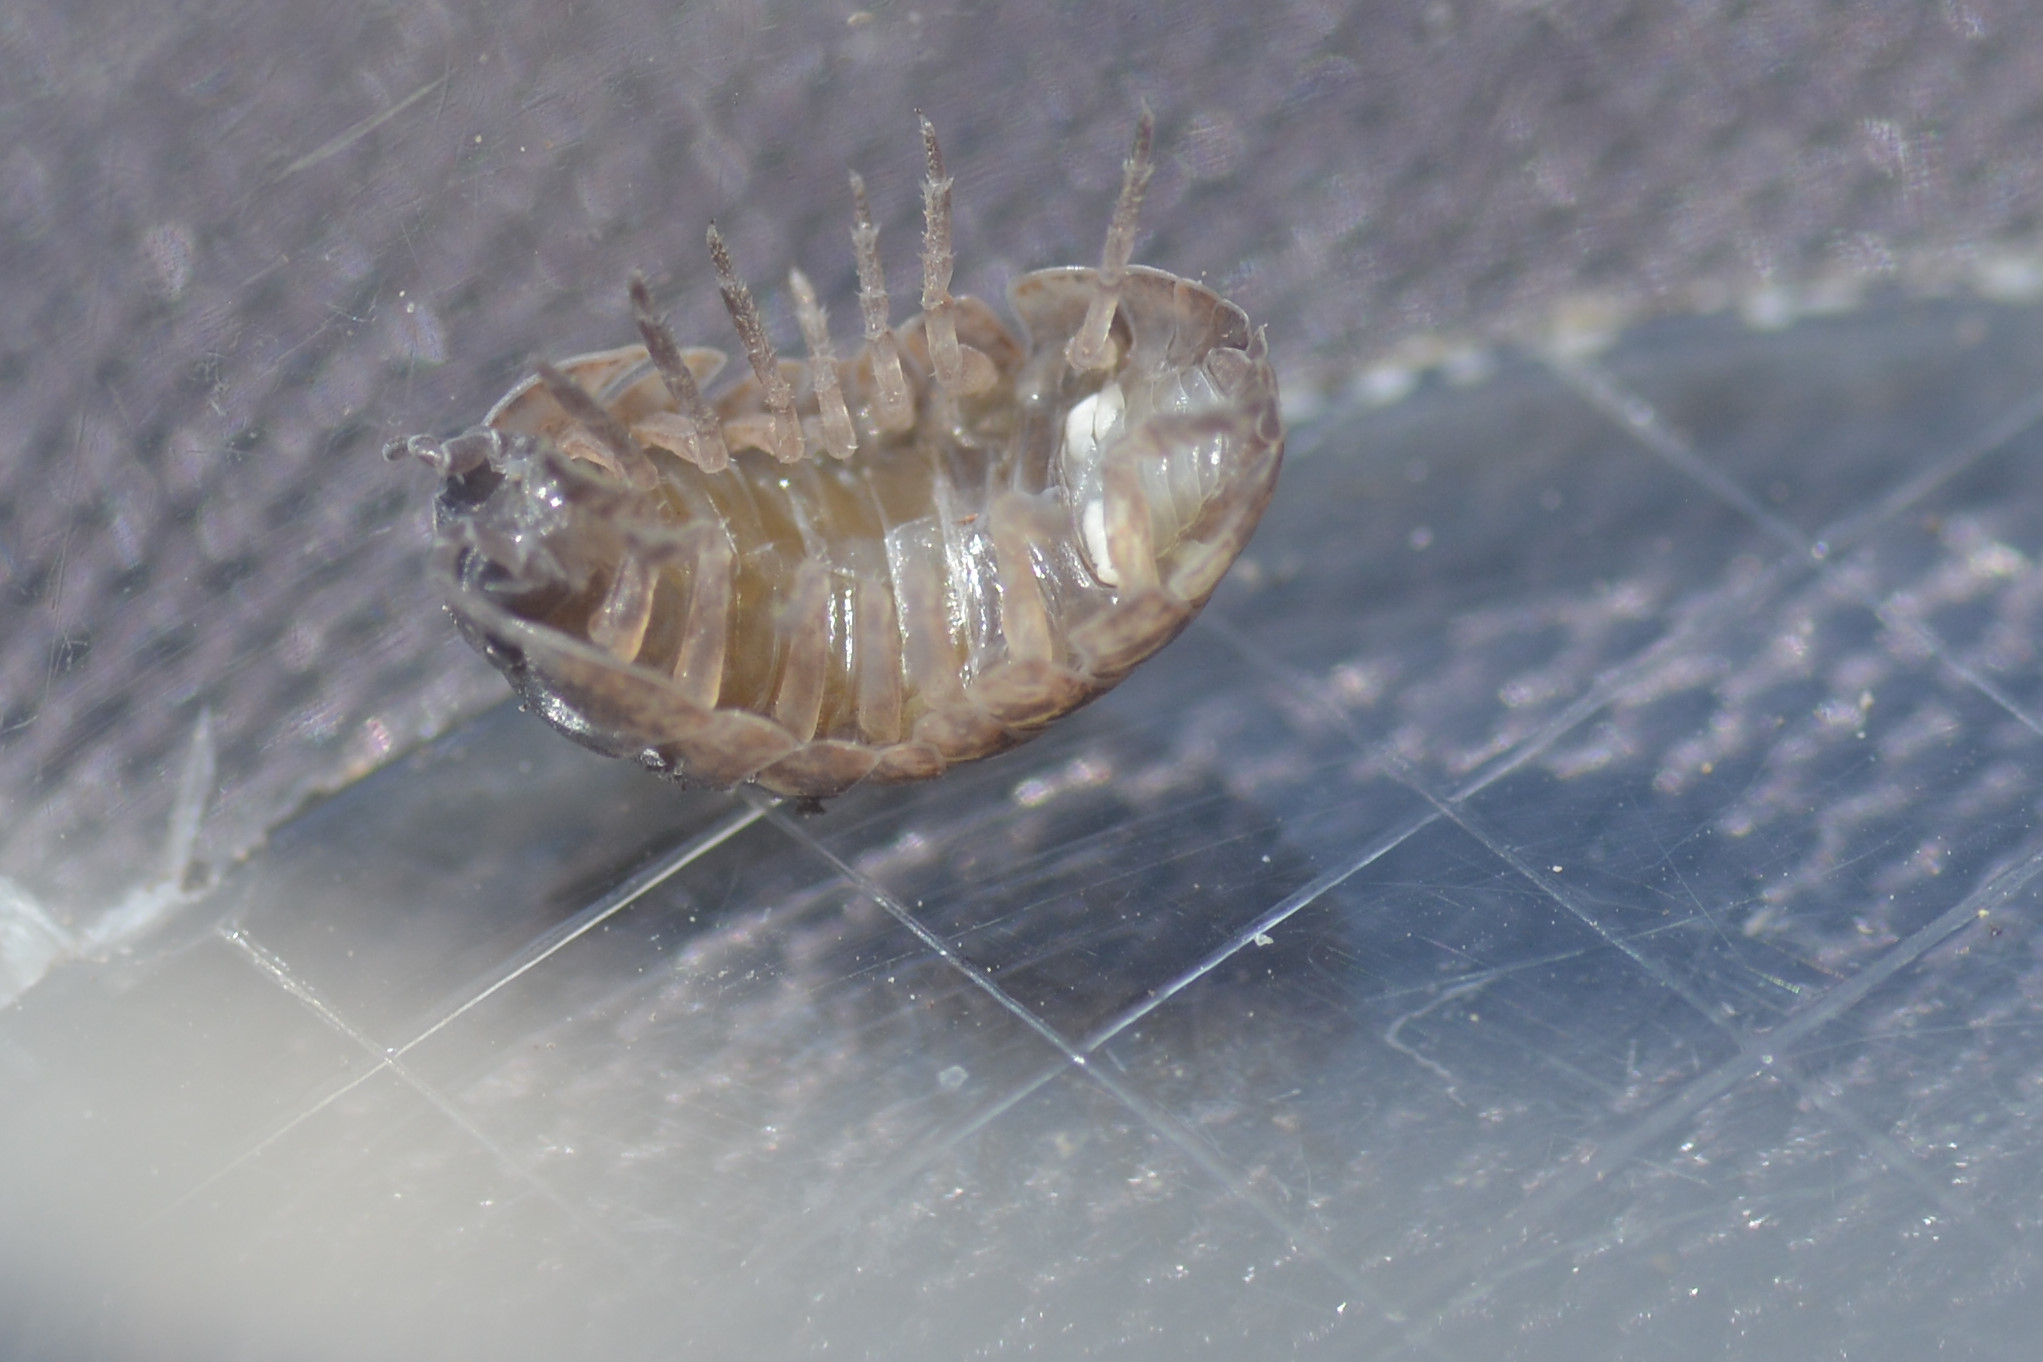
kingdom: Animalia
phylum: Arthropoda
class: Malacostraca
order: Isopoda
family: Armadillidiidae
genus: Armadillidium
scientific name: Armadillidium vulgare
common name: Common pill woodlouse
